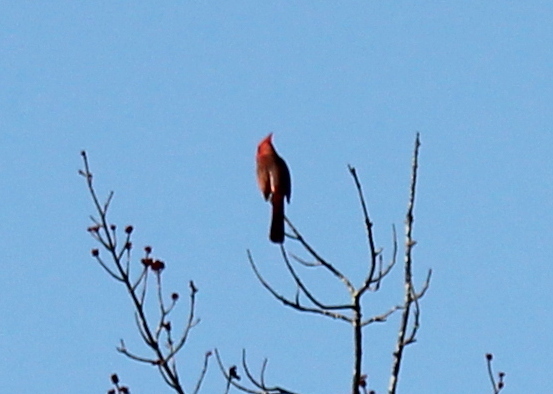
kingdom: Animalia
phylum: Chordata
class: Aves
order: Passeriformes
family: Cardinalidae
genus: Cardinalis
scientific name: Cardinalis cardinalis
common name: Northern cardinal
